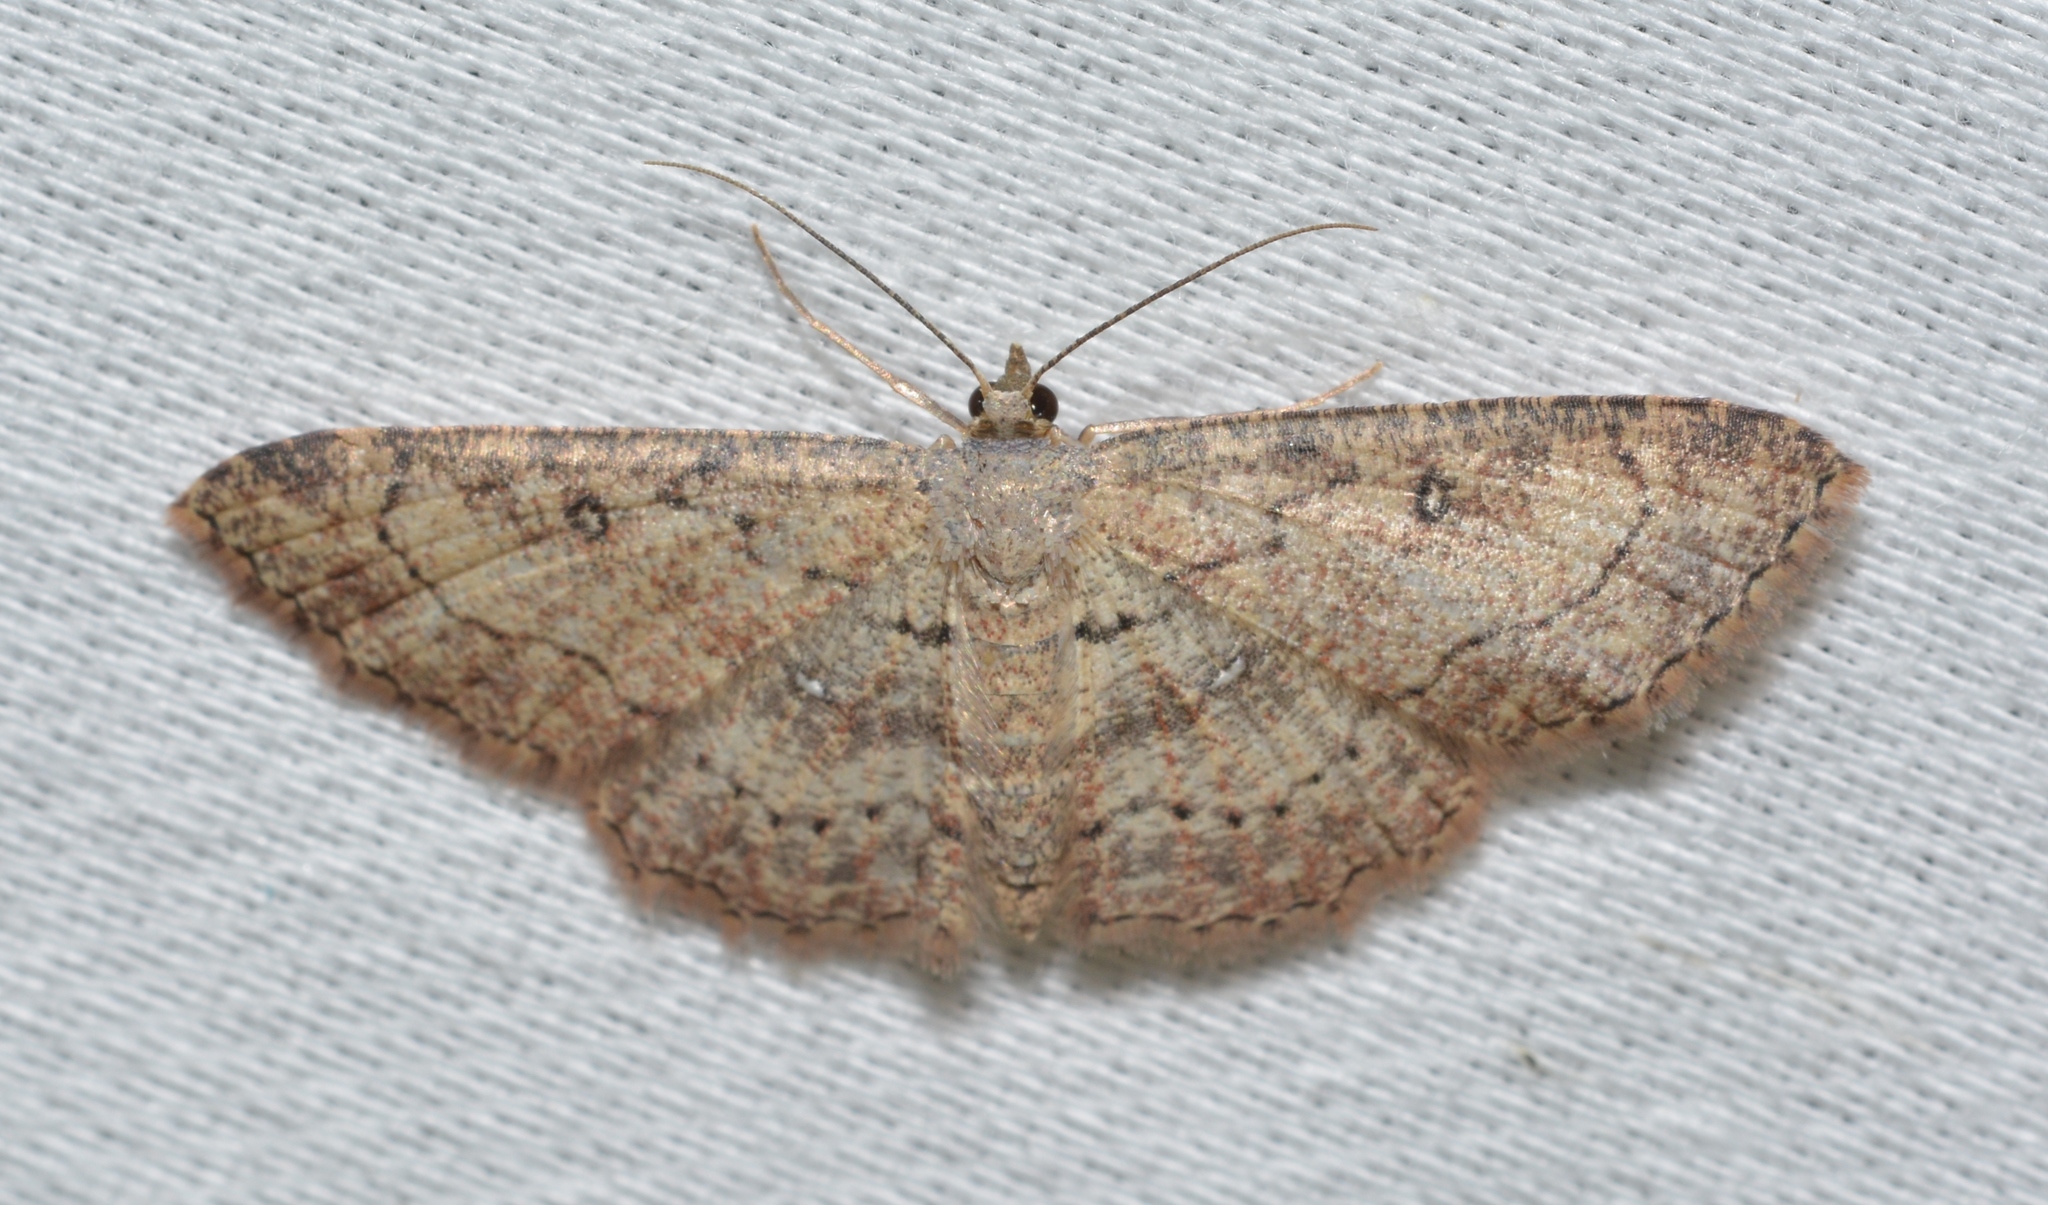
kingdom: Animalia
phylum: Arthropoda
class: Insecta
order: Lepidoptera
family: Geometridae
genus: Cyclophora
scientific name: Cyclophora nanaria
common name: Cankerworm
